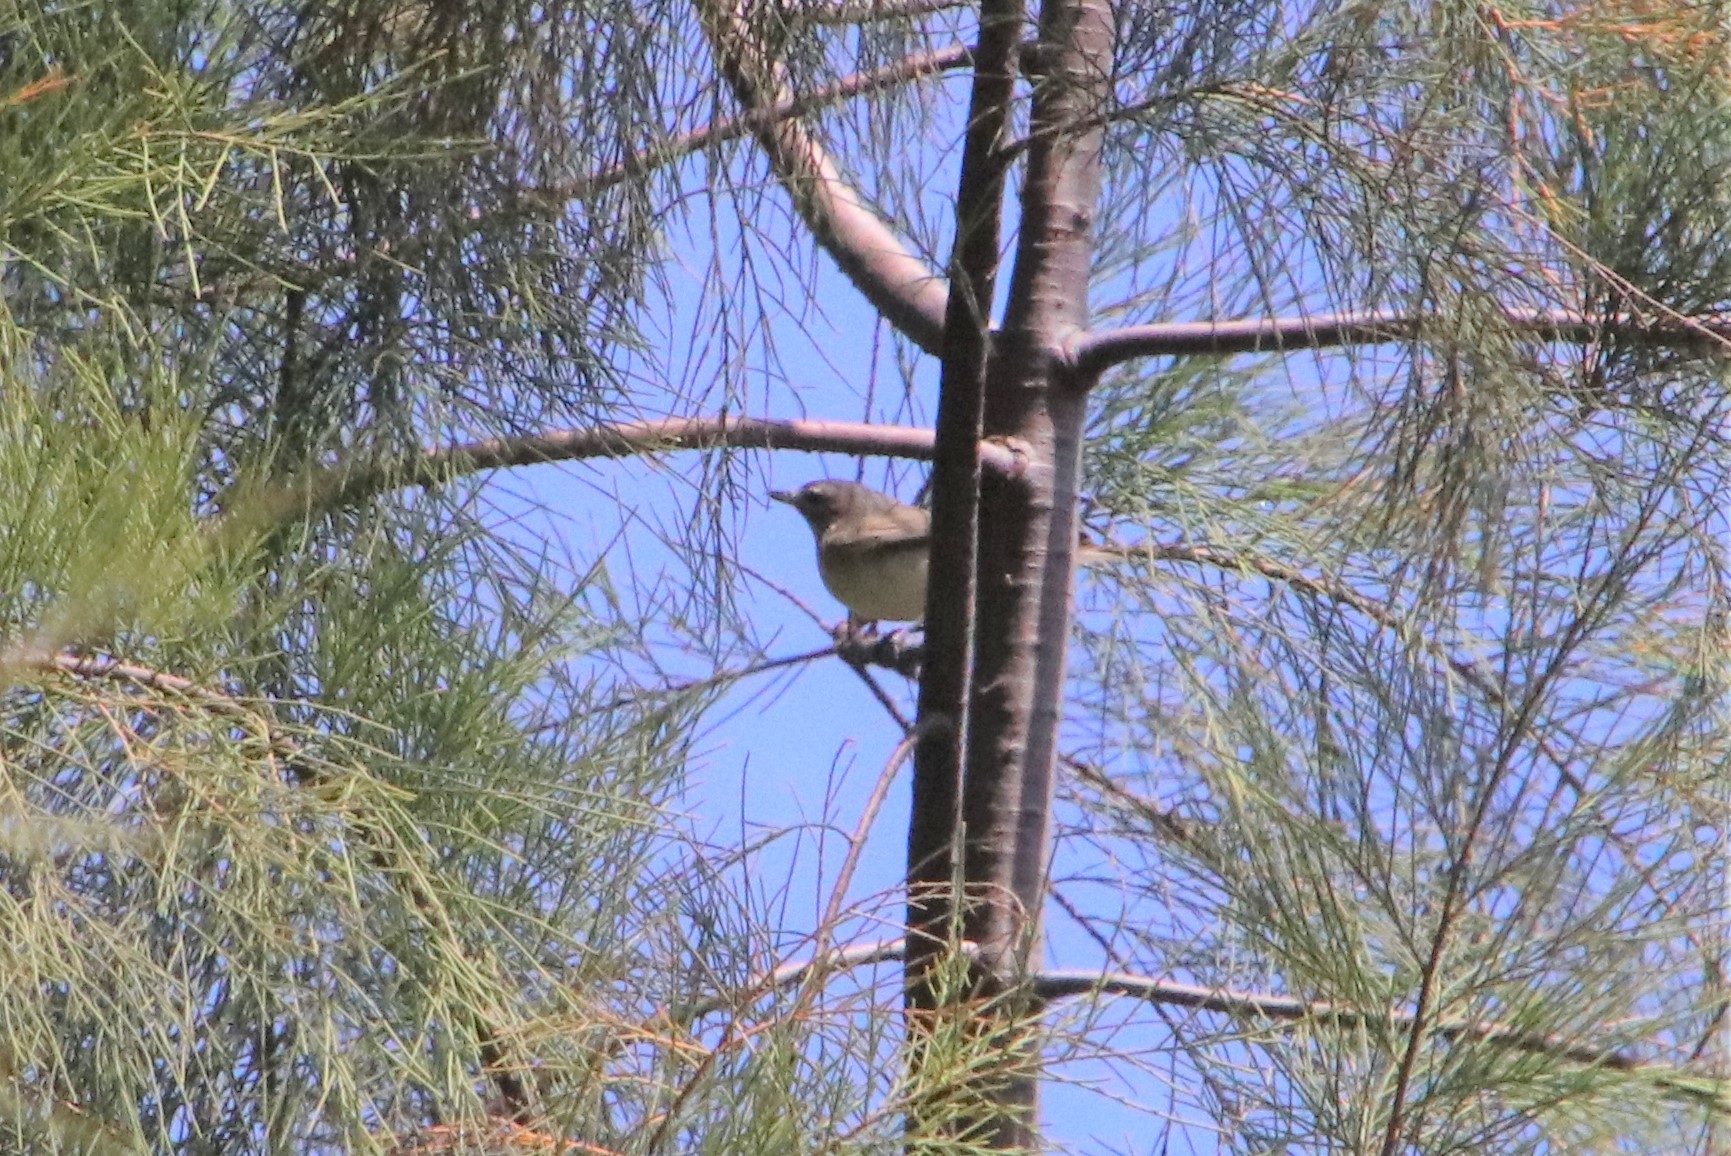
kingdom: Animalia
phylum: Chordata
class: Aves
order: Passeriformes
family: Vireonidae
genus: Vireo
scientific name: Vireo gilvus
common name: Warbling vireo
